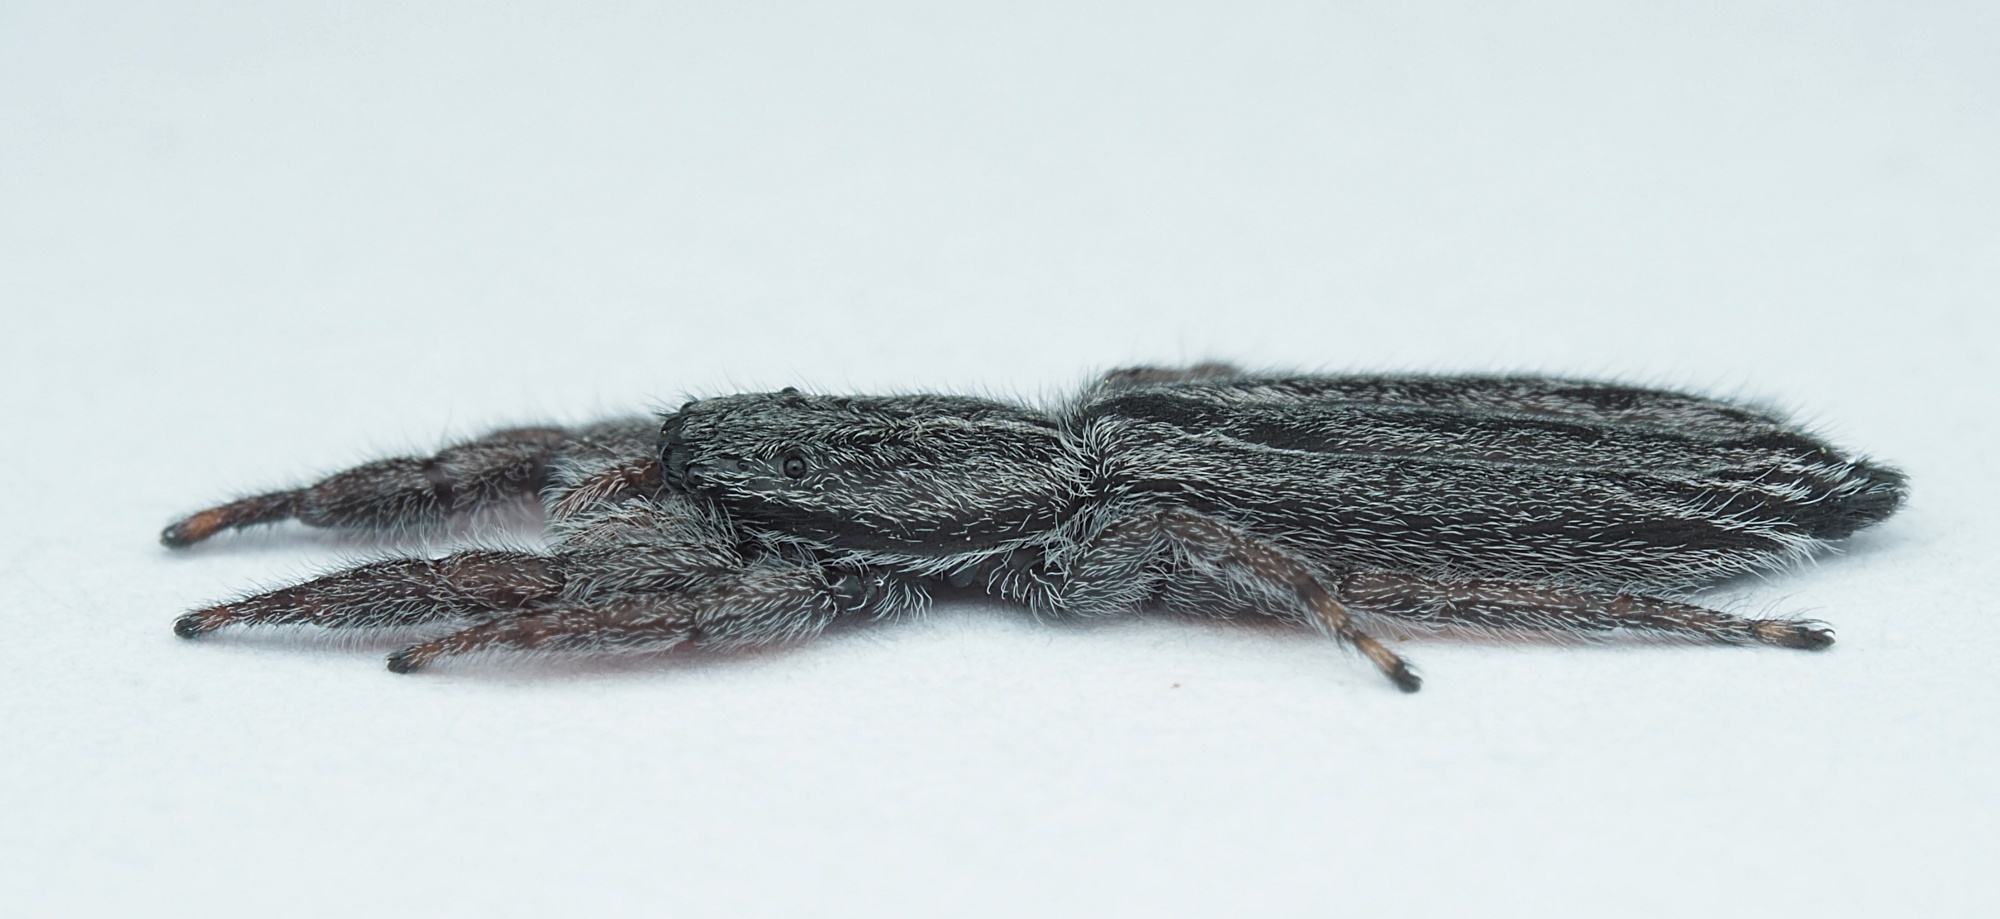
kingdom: Animalia
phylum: Arthropoda
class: Arachnida
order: Araneae
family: Salticidae
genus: Holoplatys
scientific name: Holoplatys apressus
